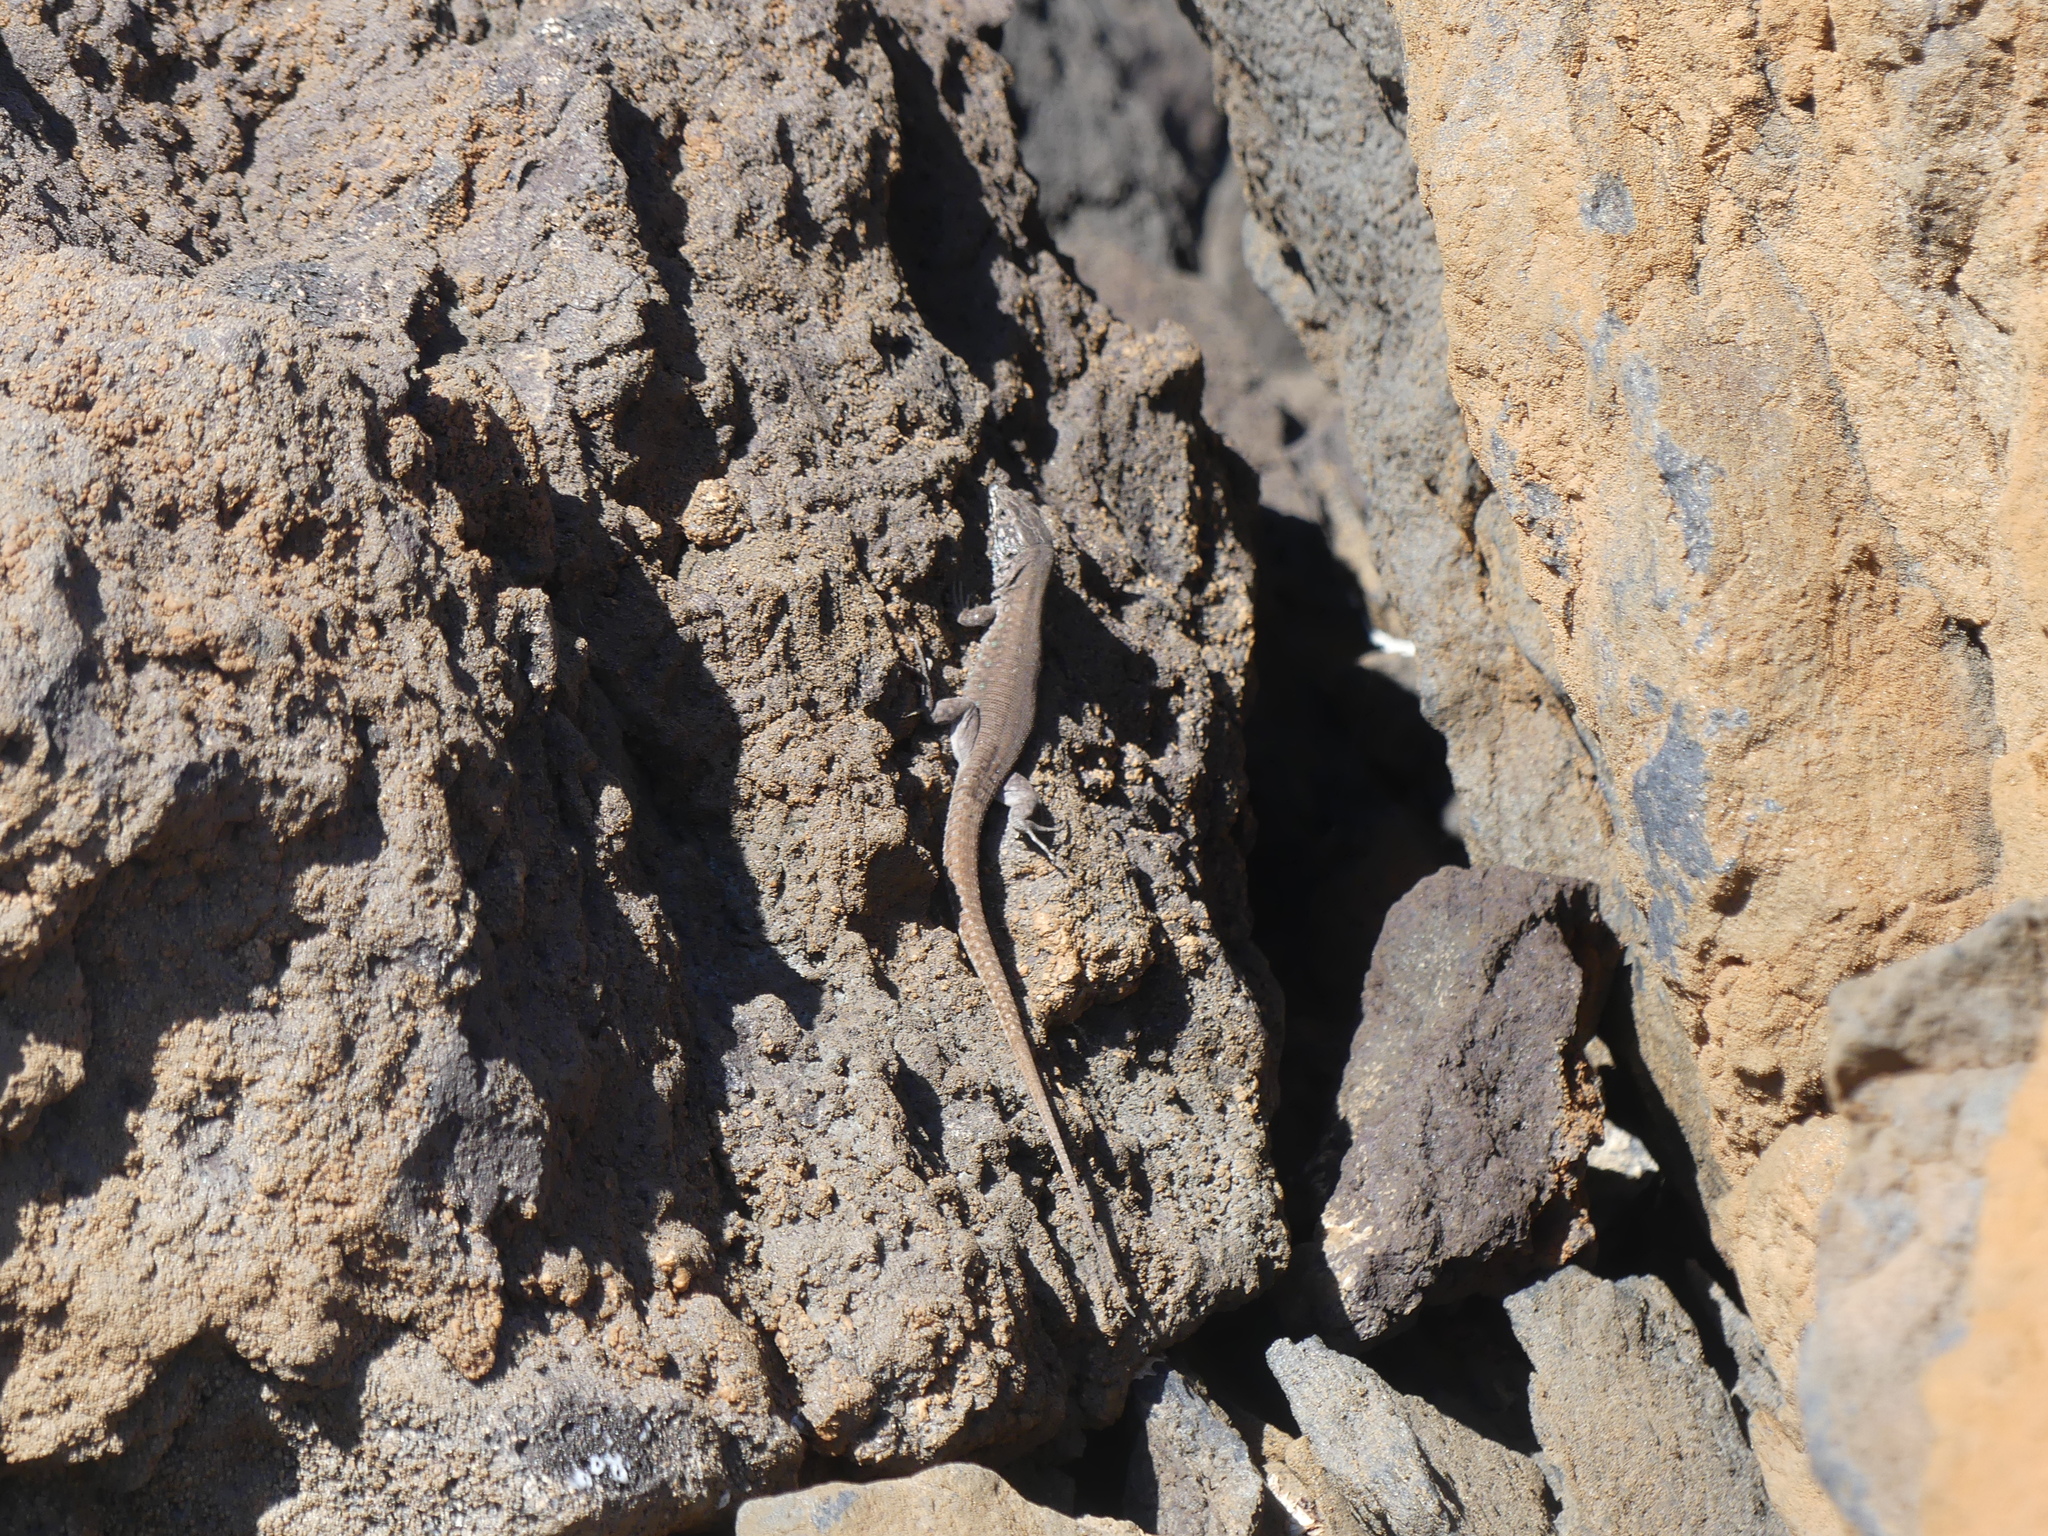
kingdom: Animalia
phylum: Chordata
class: Squamata
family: Lacertidae
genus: Gallotia
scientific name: Gallotia atlantica
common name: Atlantic lizard
